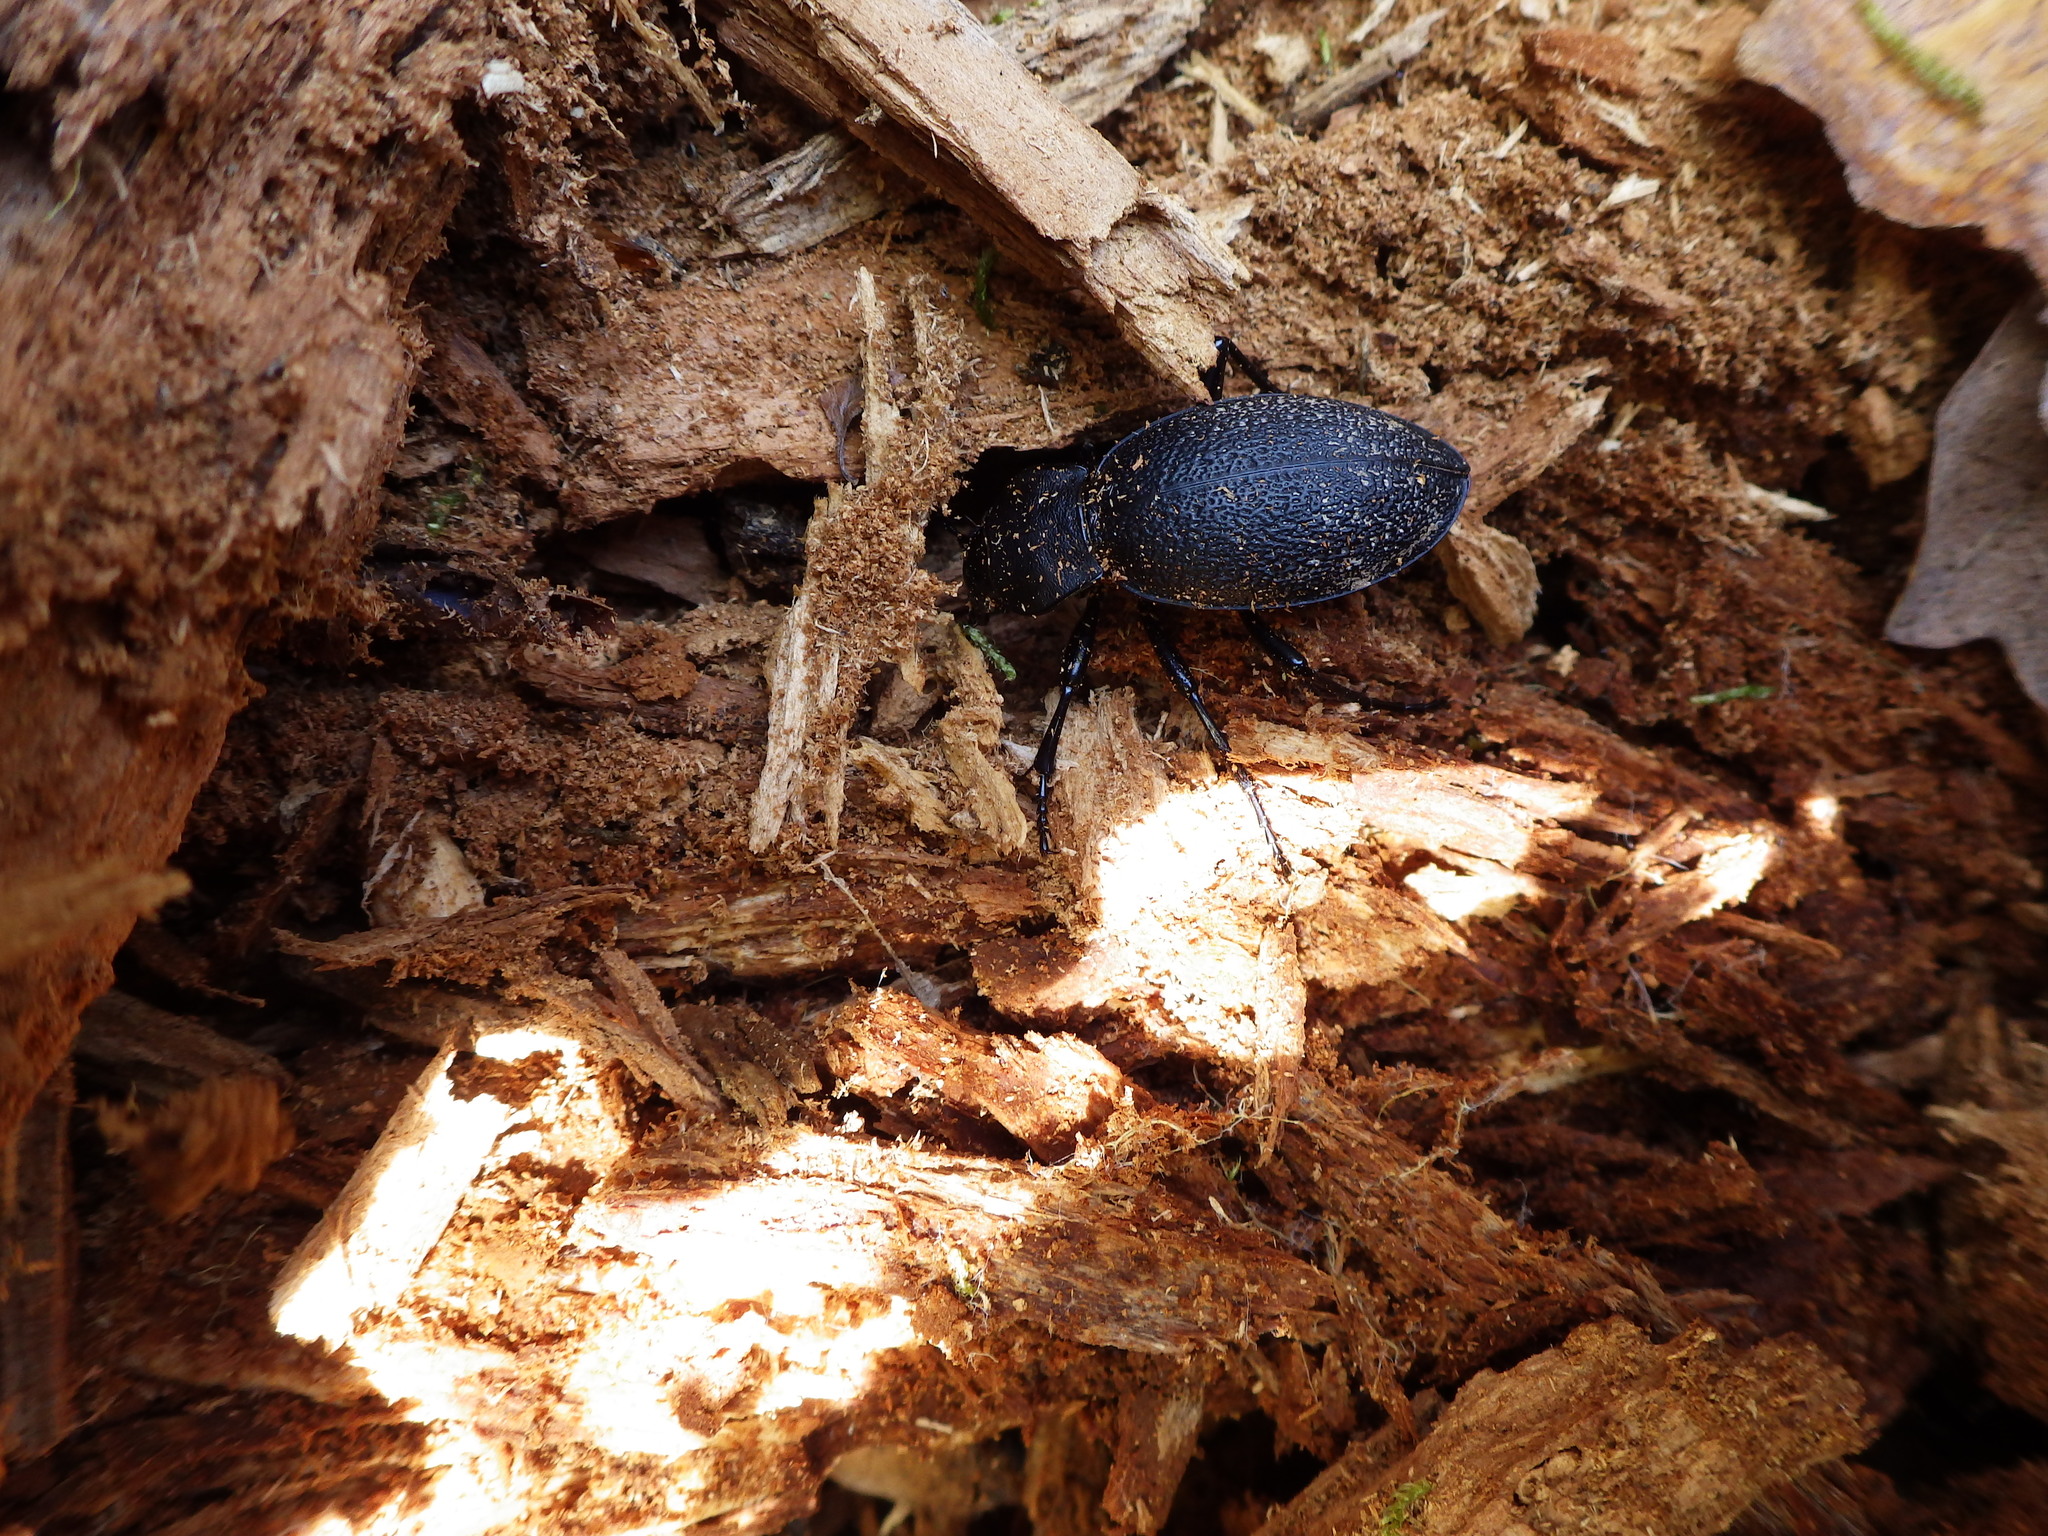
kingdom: Animalia
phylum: Arthropoda
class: Insecta
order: Coleoptera
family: Carabidae
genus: Carabus
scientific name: Carabus coriaceus
